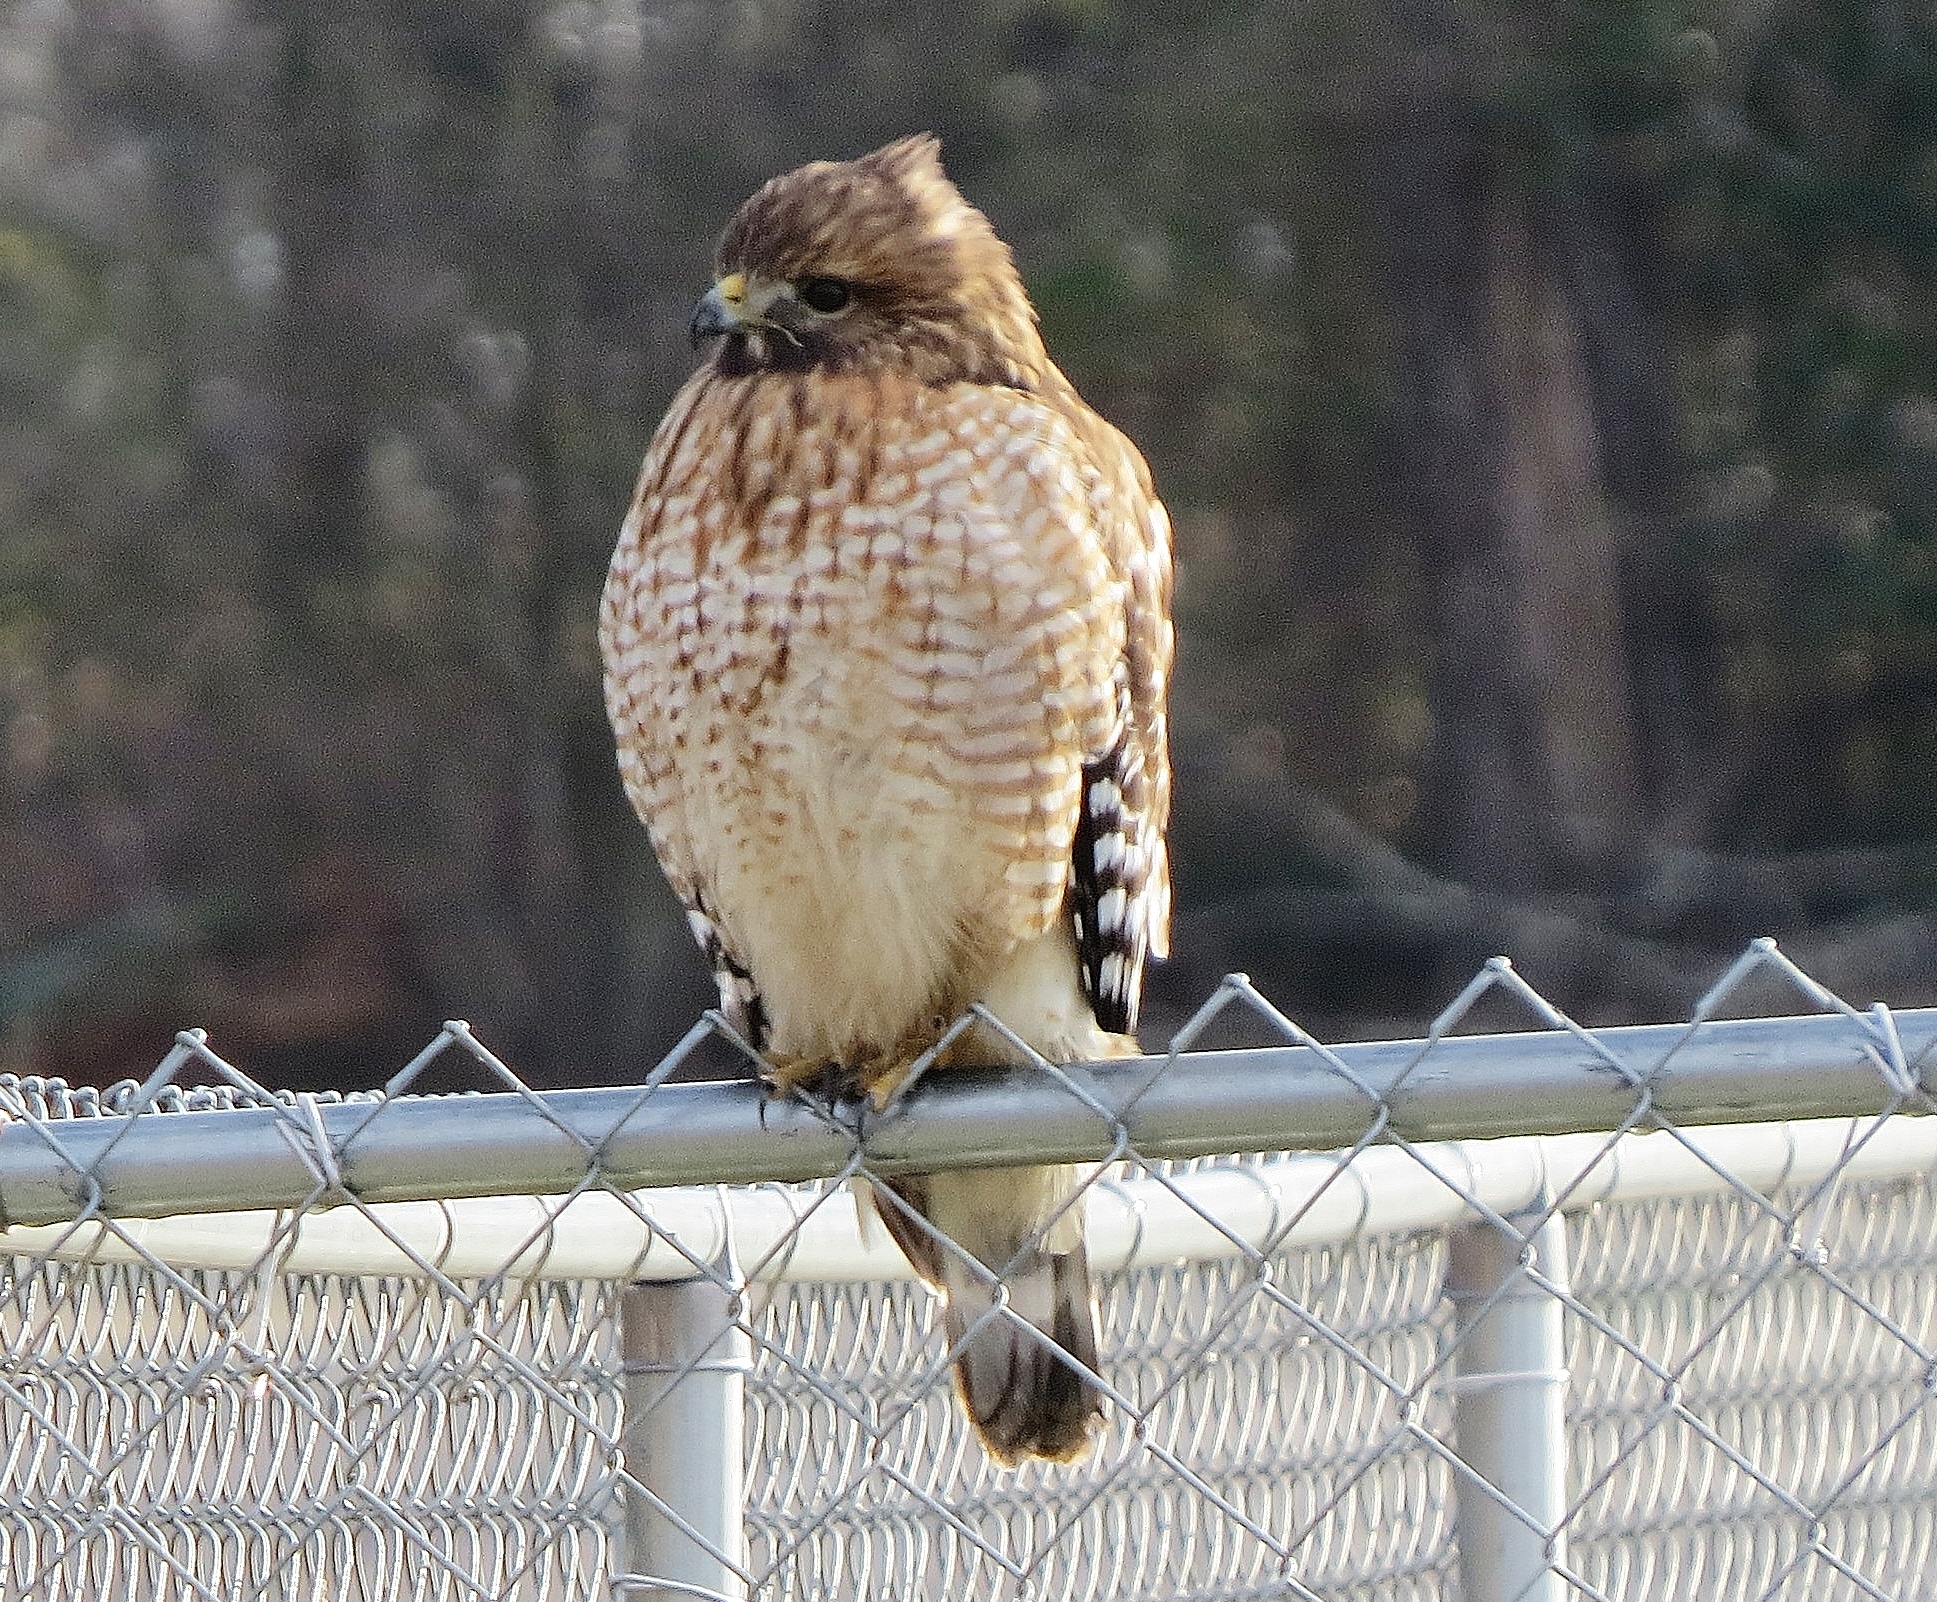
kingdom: Animalia
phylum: Chordata
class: Aves
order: Accipitriformes
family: Accipitridae
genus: Buteo
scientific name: Buteo lineatus
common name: Red-shouldered hawk
